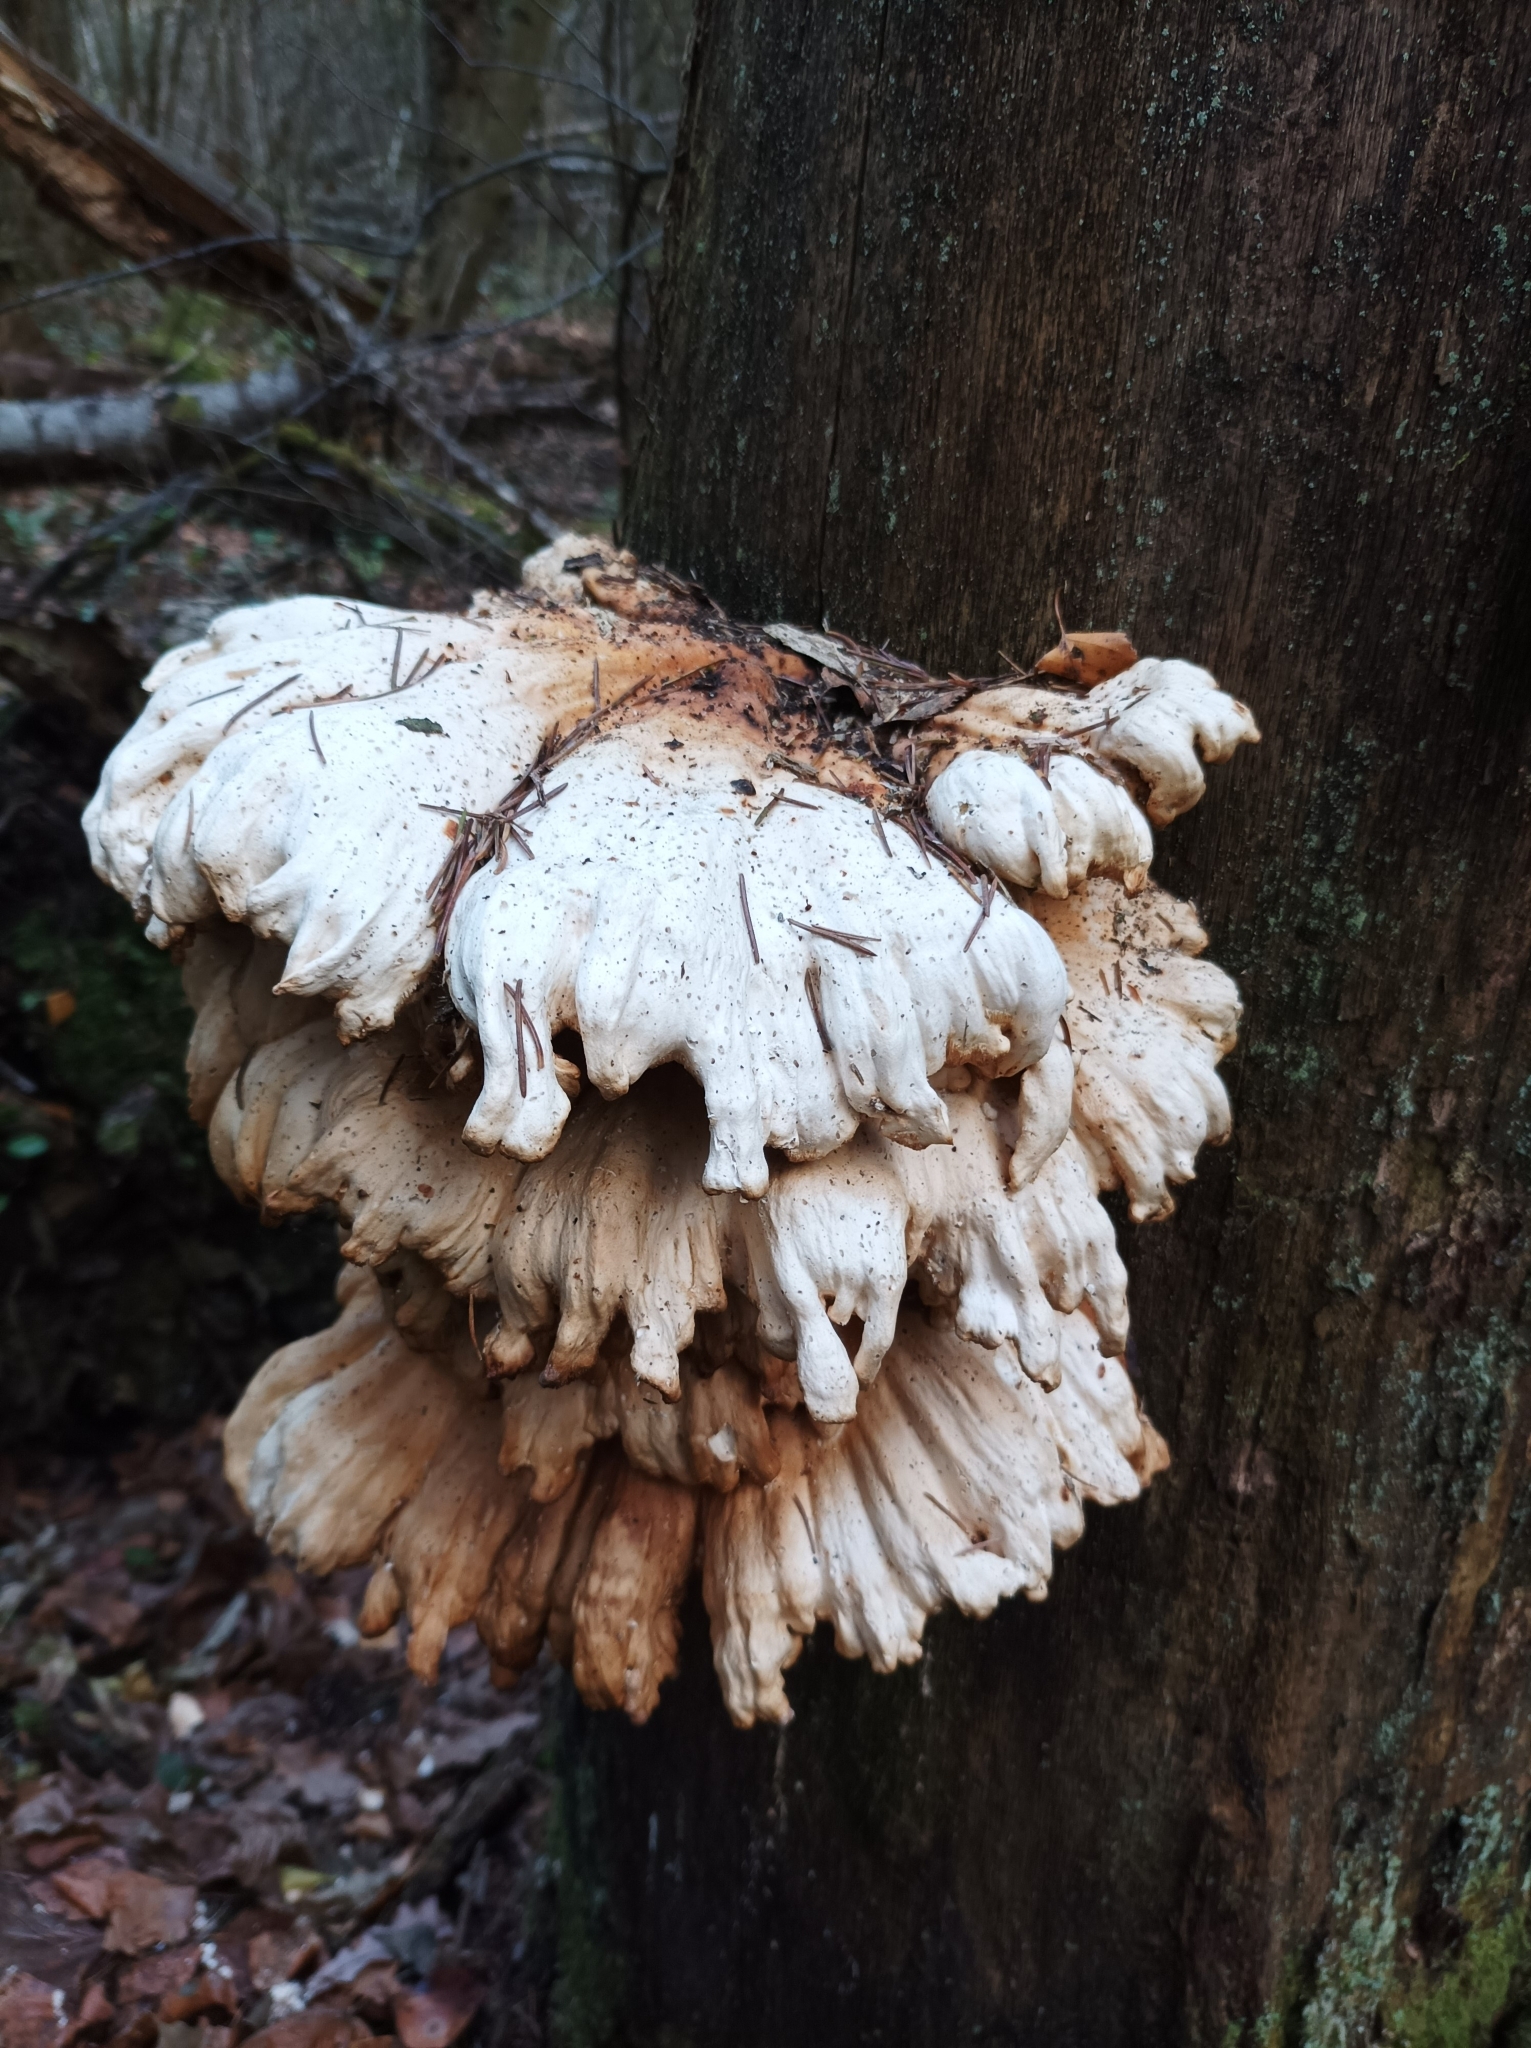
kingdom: Fungi
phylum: Basidiomycota
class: Agaricomycetes
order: Polyporales
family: Laetiporaceae
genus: Laetiporus
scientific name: Laetiporus sulphureus
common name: Chicken of the woods
